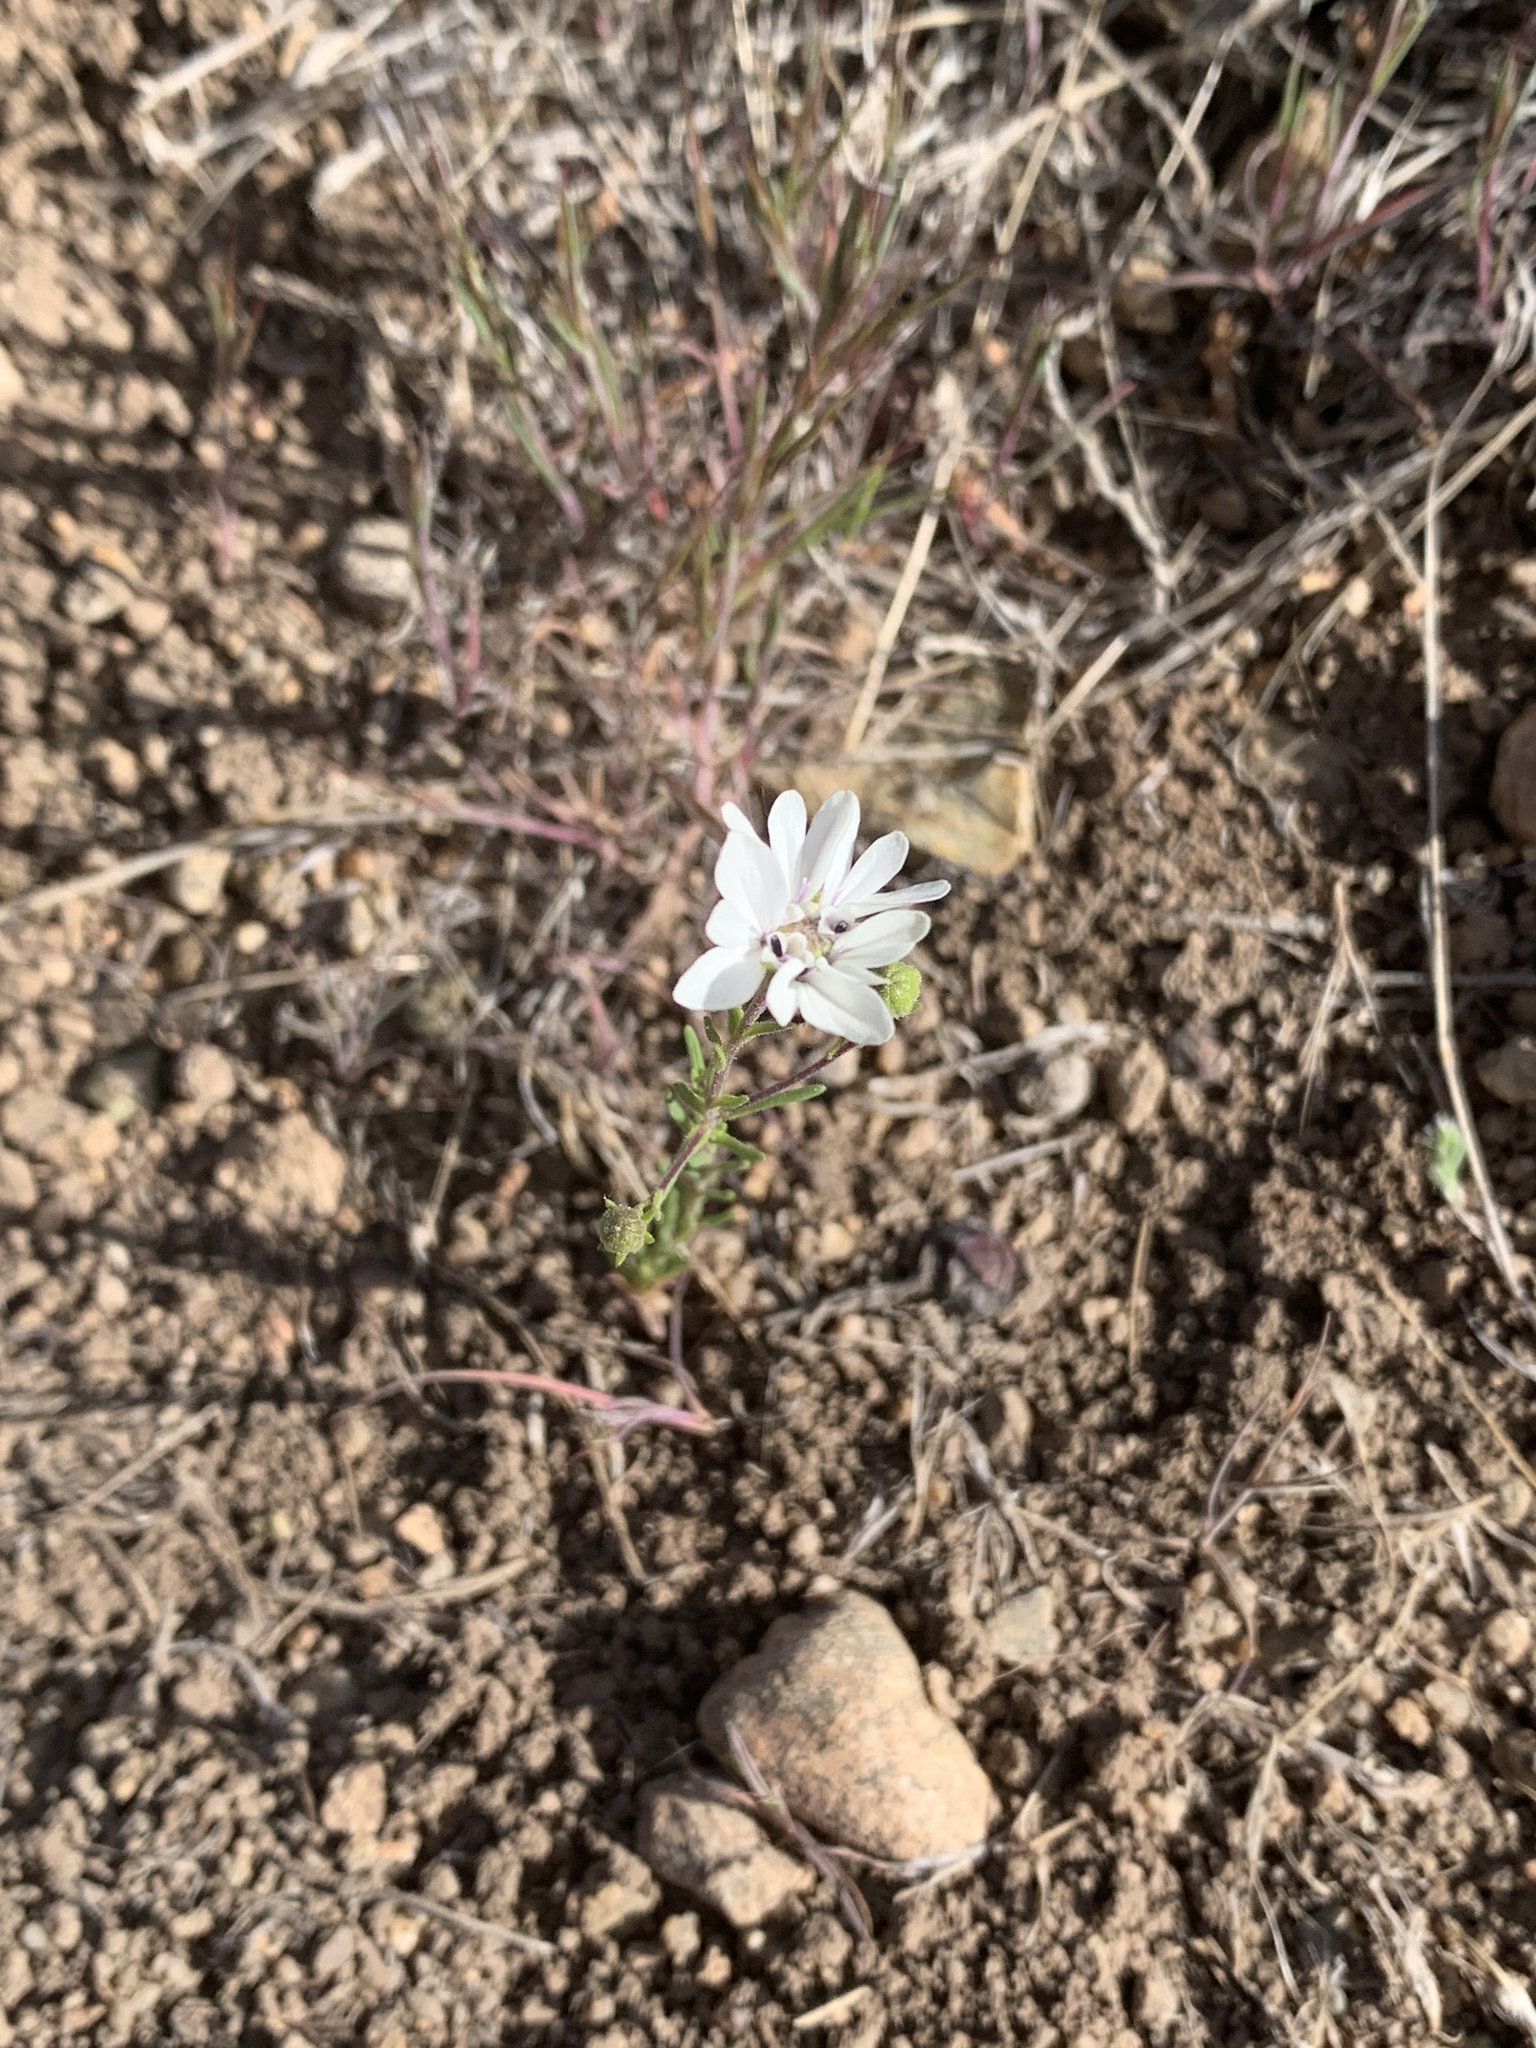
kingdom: Plantae
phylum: Tracheophyta
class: Magnoliopsida
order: Asterales
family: Asteraceae
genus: Blepharipappus
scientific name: Blepharipappus scaber
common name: Rough blepharipappus
